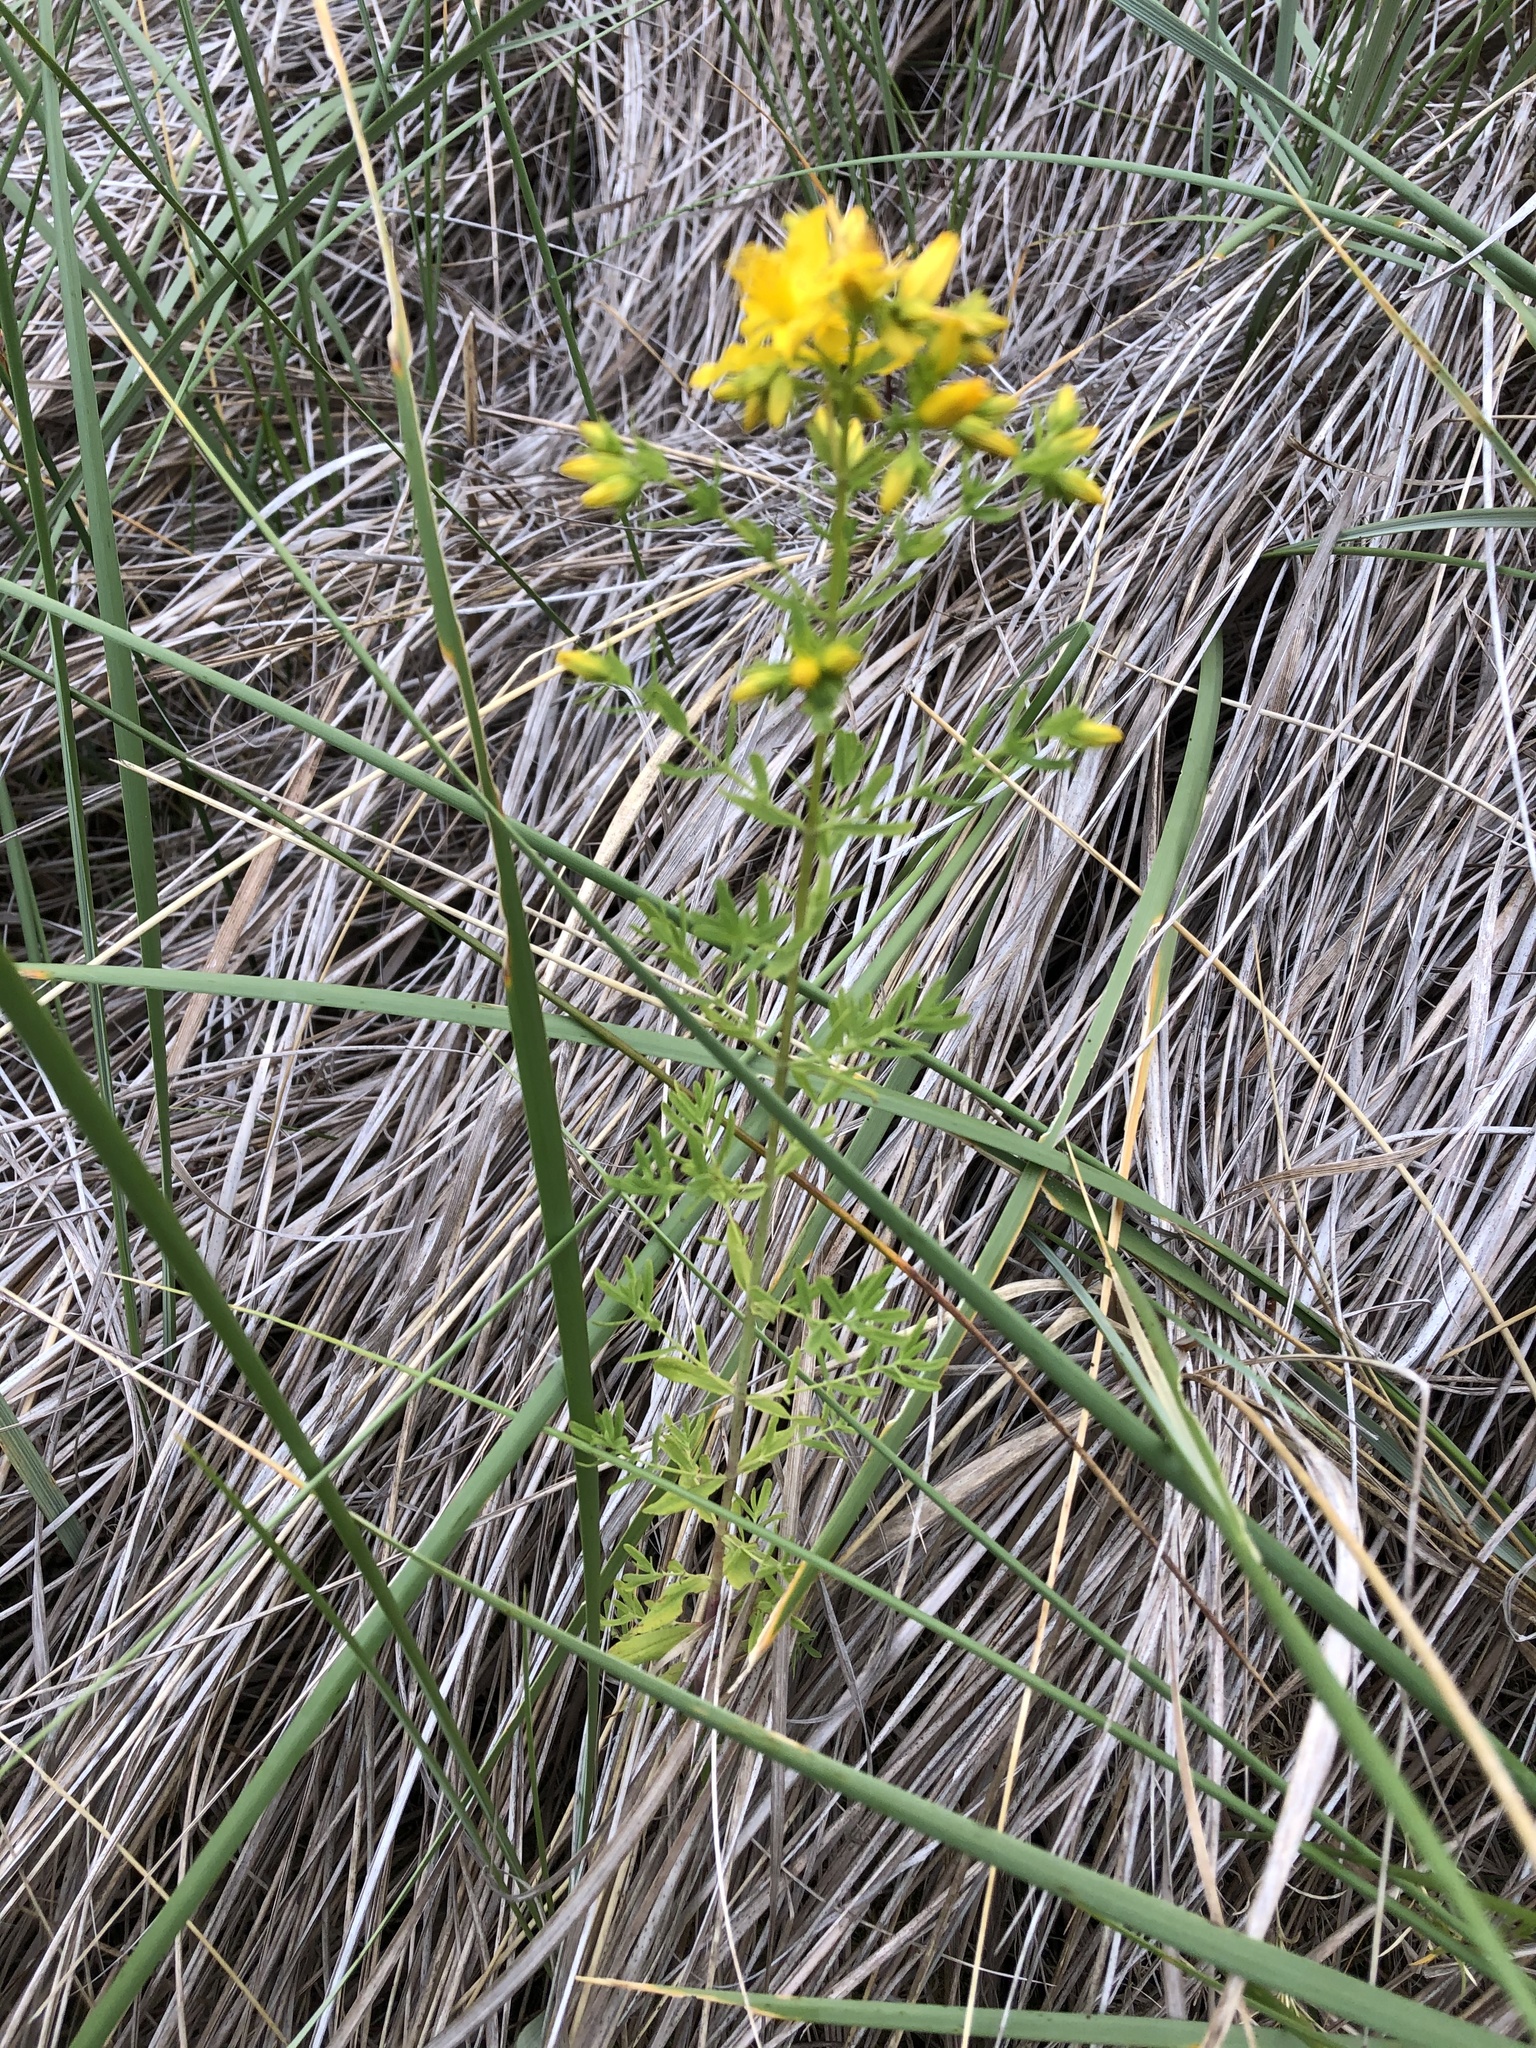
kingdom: Plantae
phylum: Tracheophyta
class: Magnoliopsida
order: Malpighiales
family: Hypericaceae
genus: Hypericum
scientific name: Hypericum perforatum
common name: Common st. johnswort
